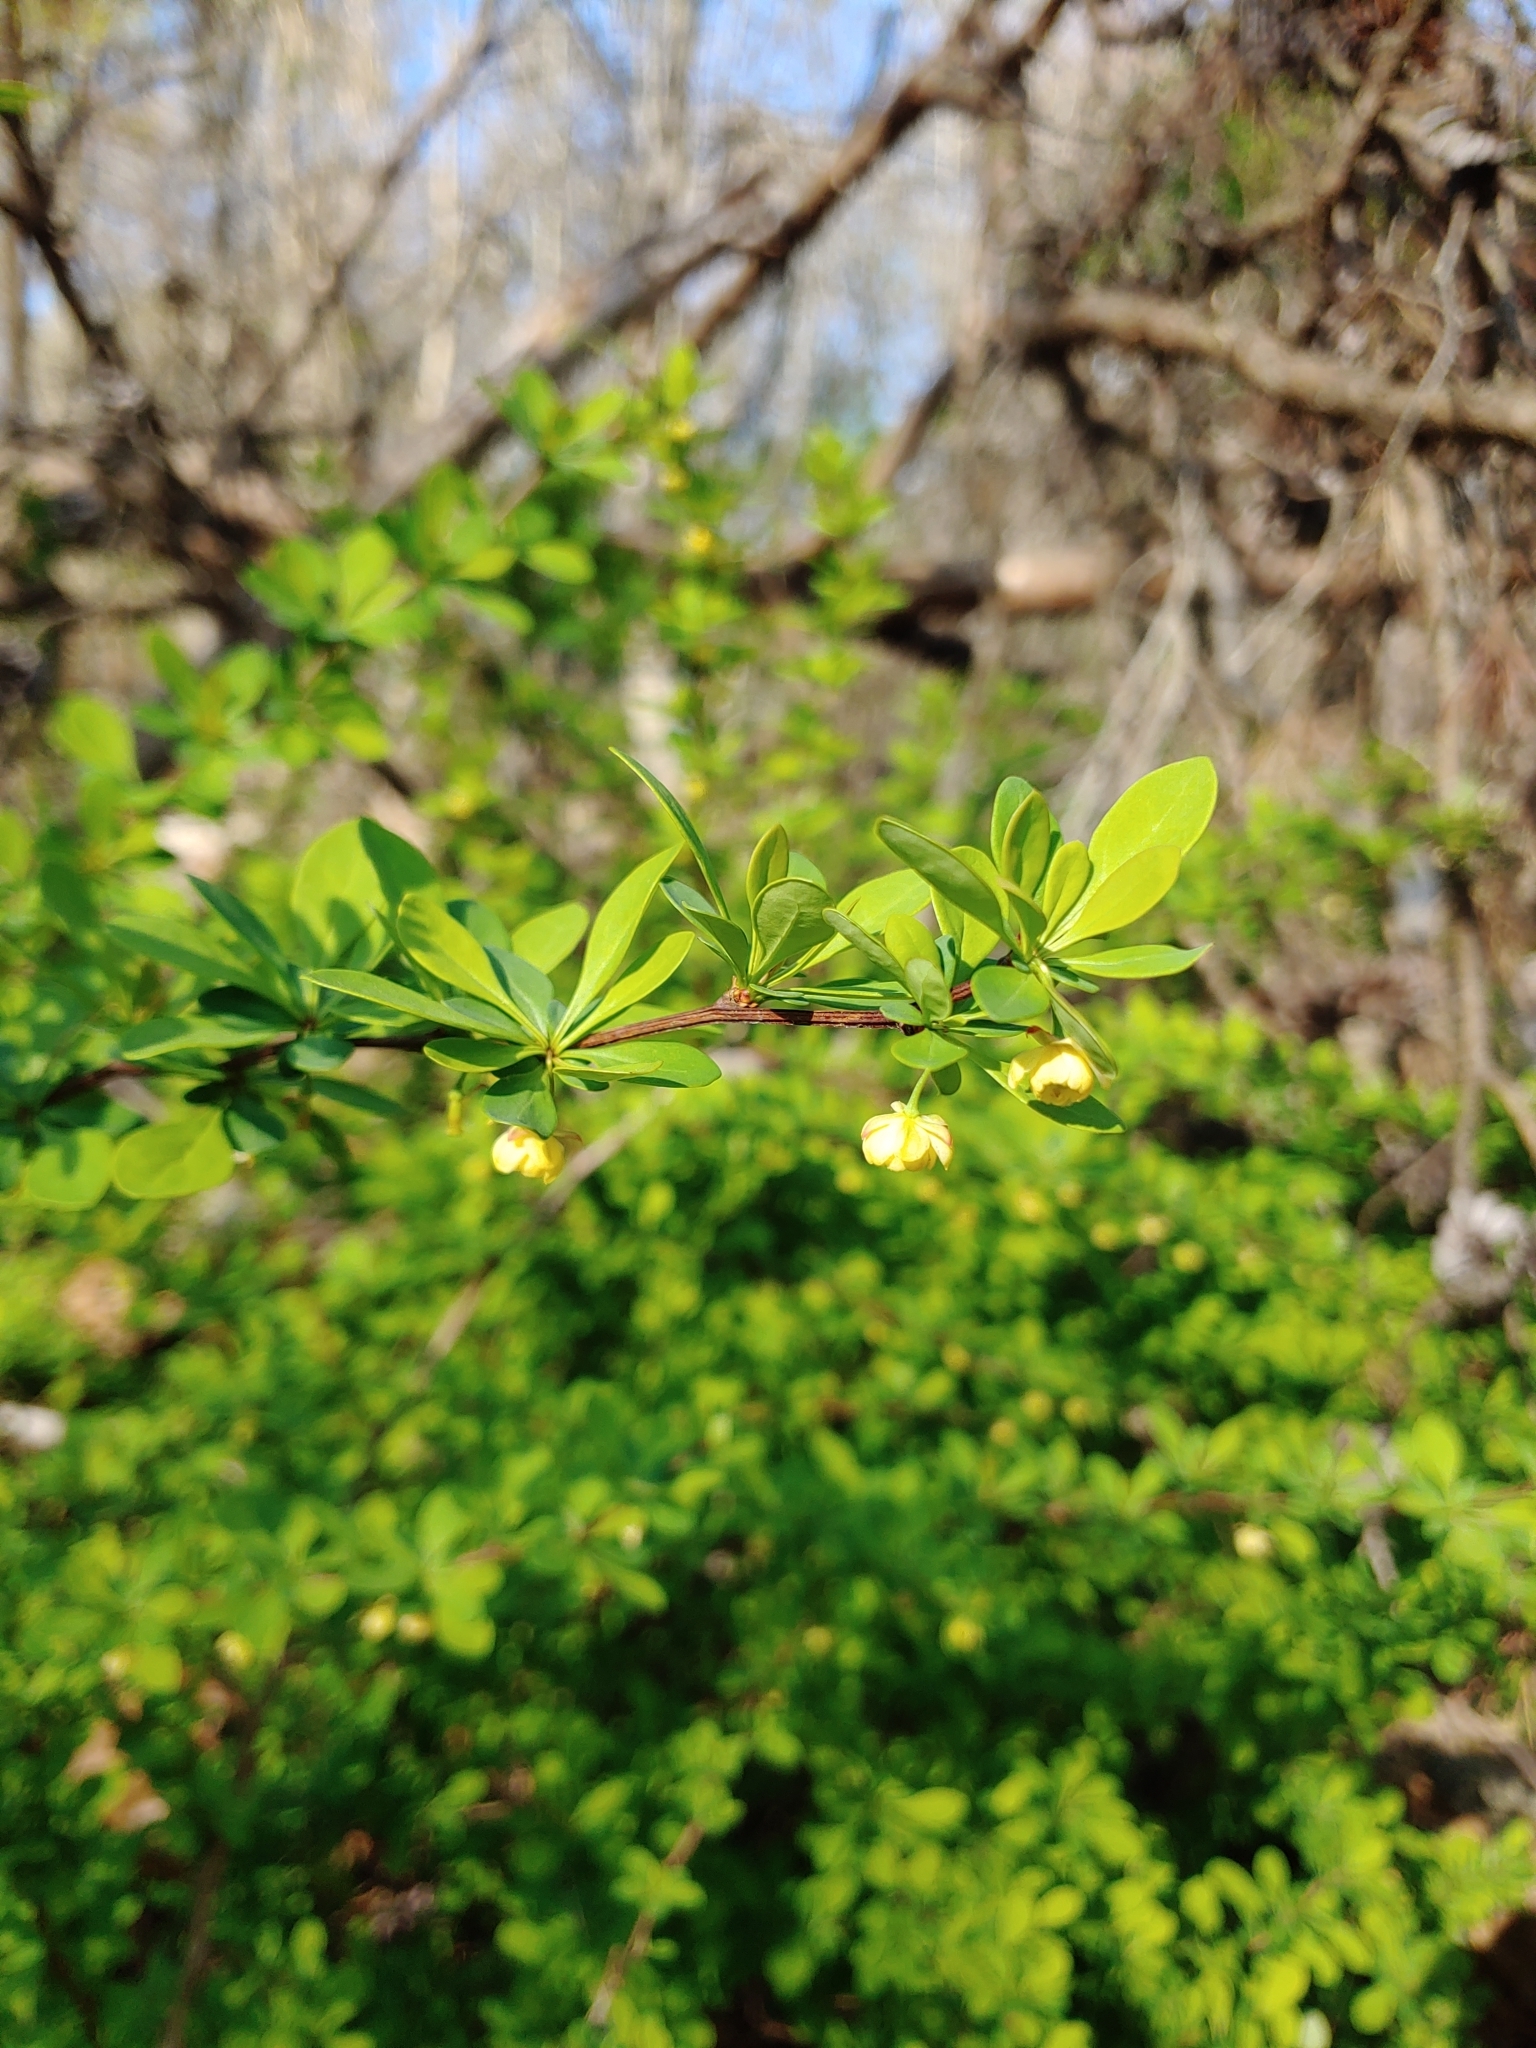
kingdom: Plantae
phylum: Tracheophyta
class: Magnoliopsida
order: Ranunculales
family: Berberidaceae
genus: Berberis
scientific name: Berberis thunbergii
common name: Japanese barberry
